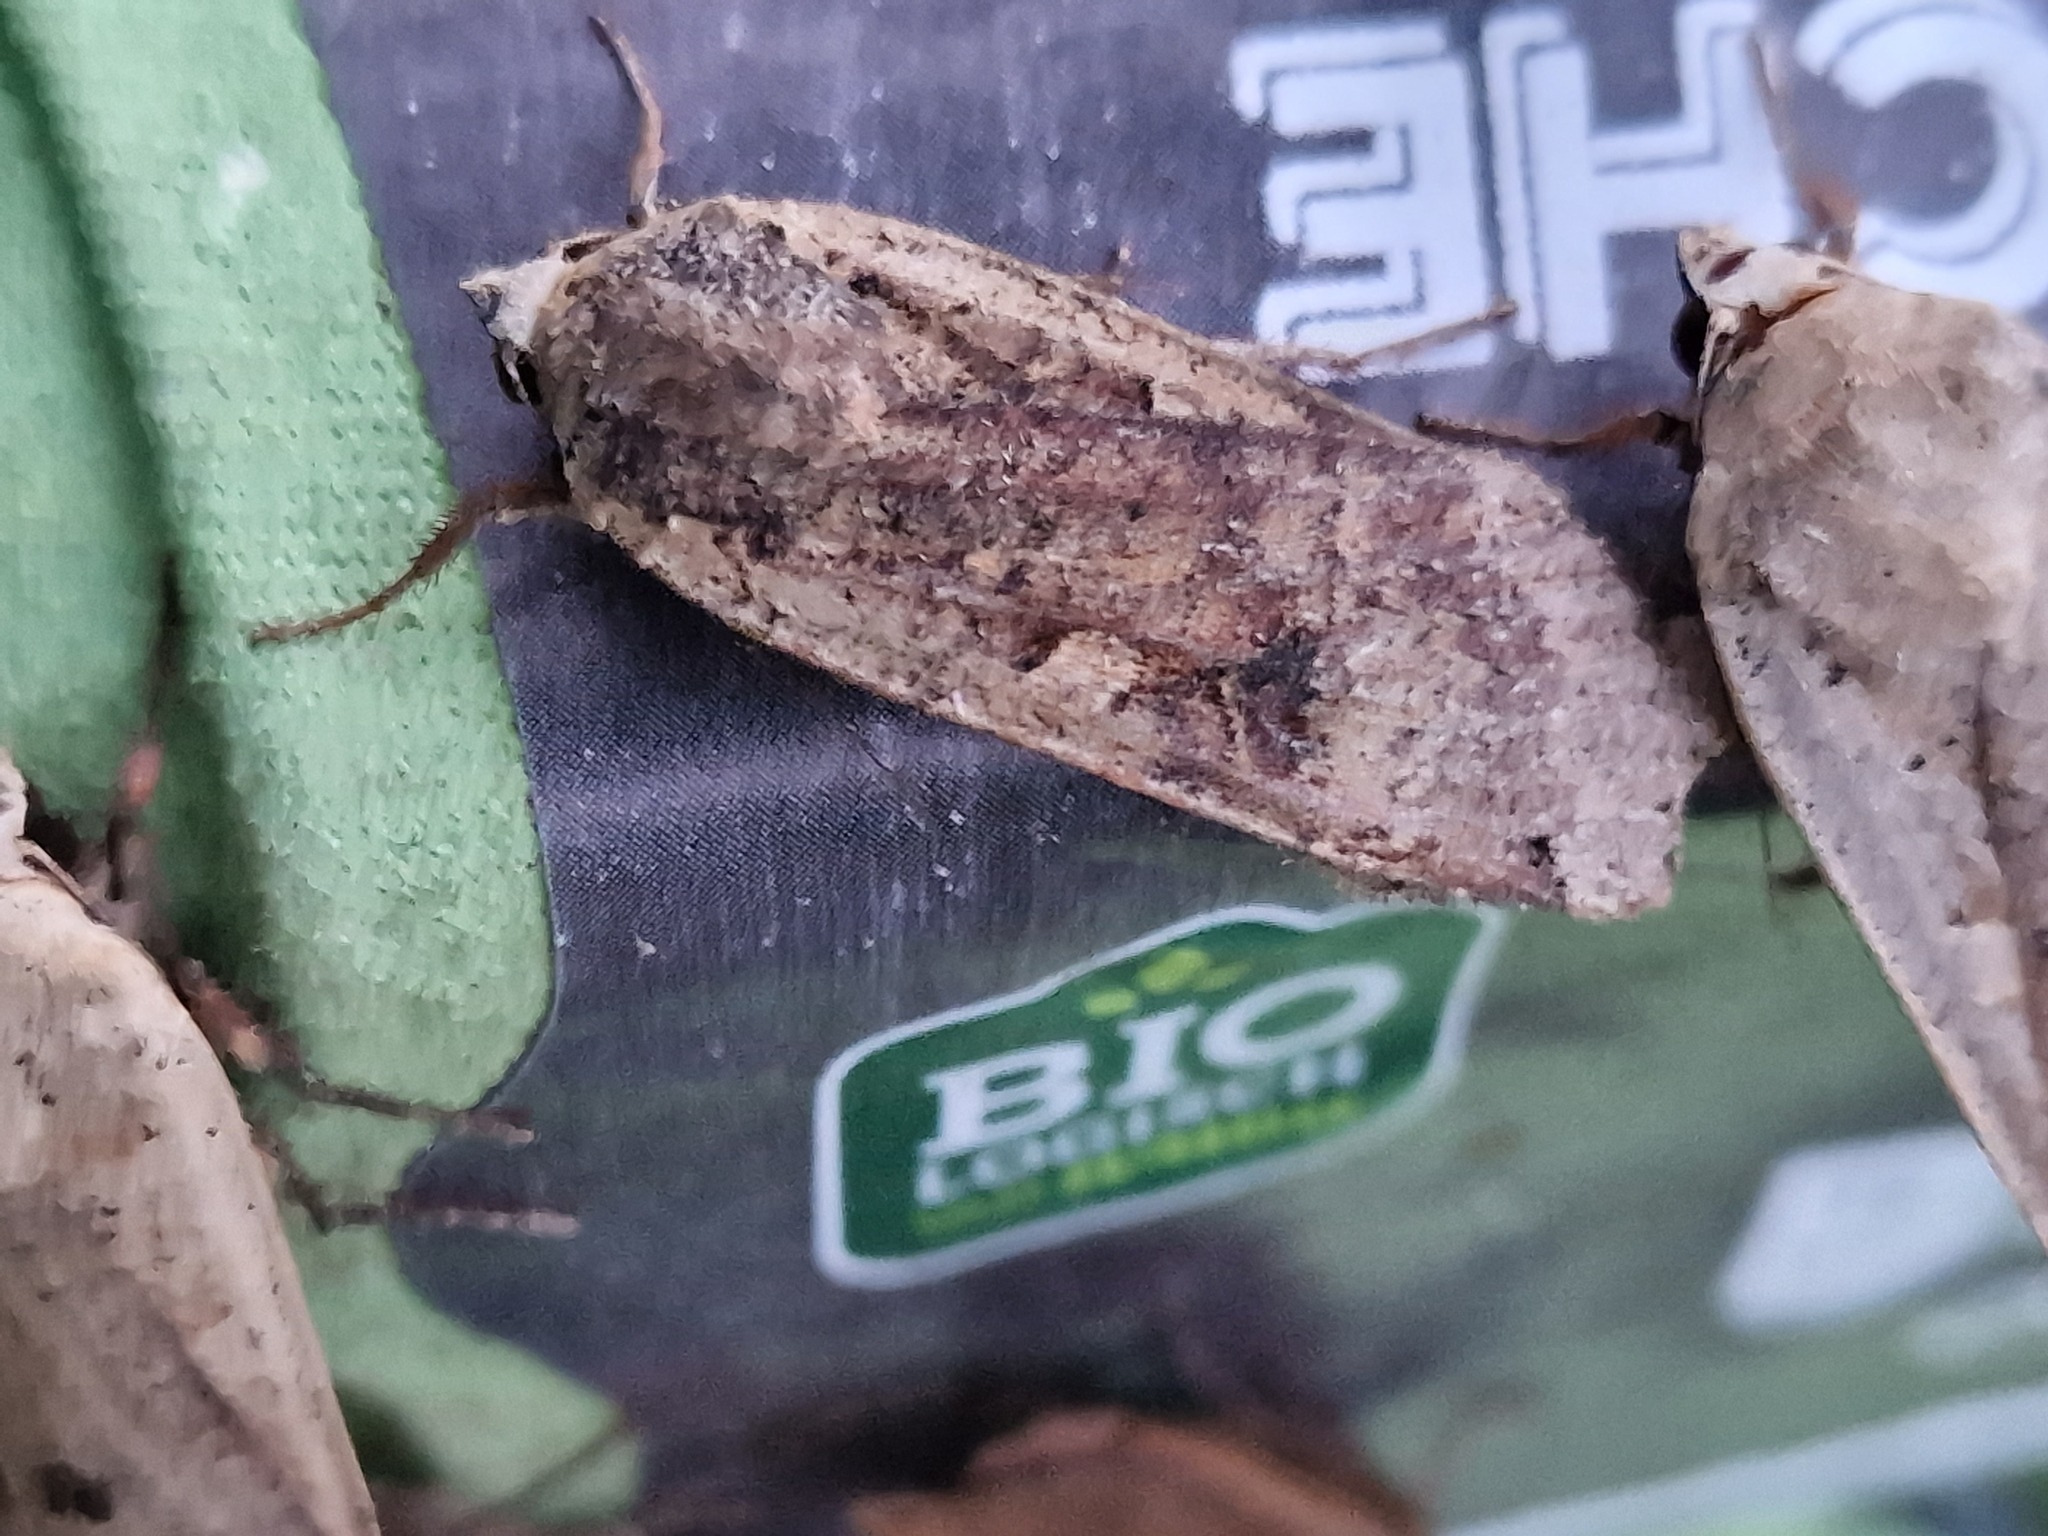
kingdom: Animalia
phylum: Arthropoda
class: Insecta
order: Lepidoptera
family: Noctuidae
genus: Noctua
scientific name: Noctua pronuba
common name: Large yellow underwing
